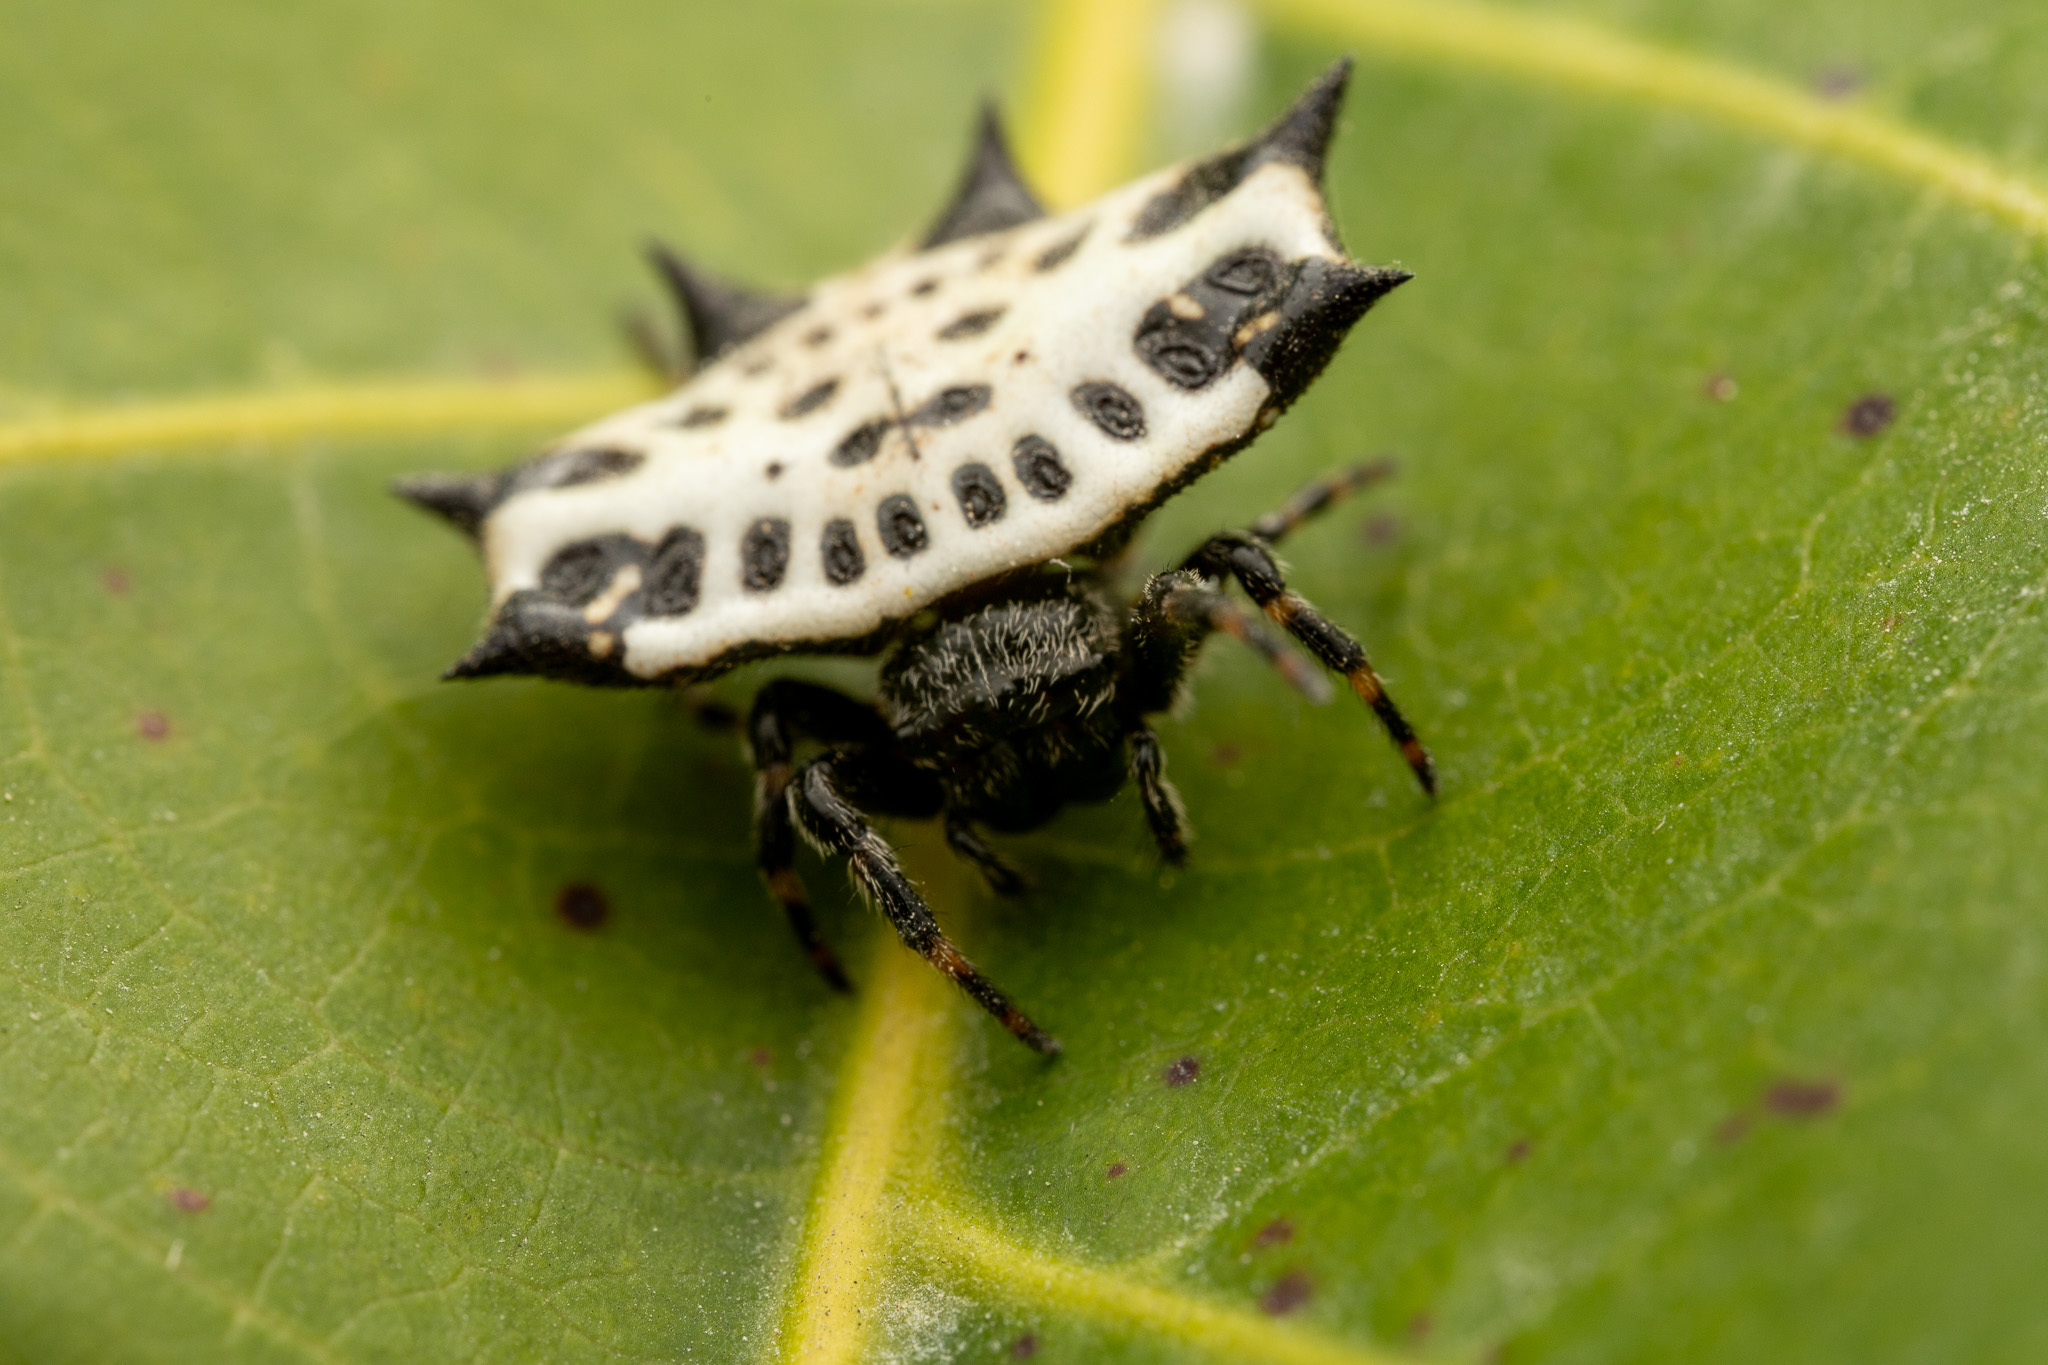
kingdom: Animalia
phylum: Arthropoda
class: Arachnida
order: Araneae
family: Araneidae
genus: Gasteracantha
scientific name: Gasteracantha cancriformis
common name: Orb weavers
